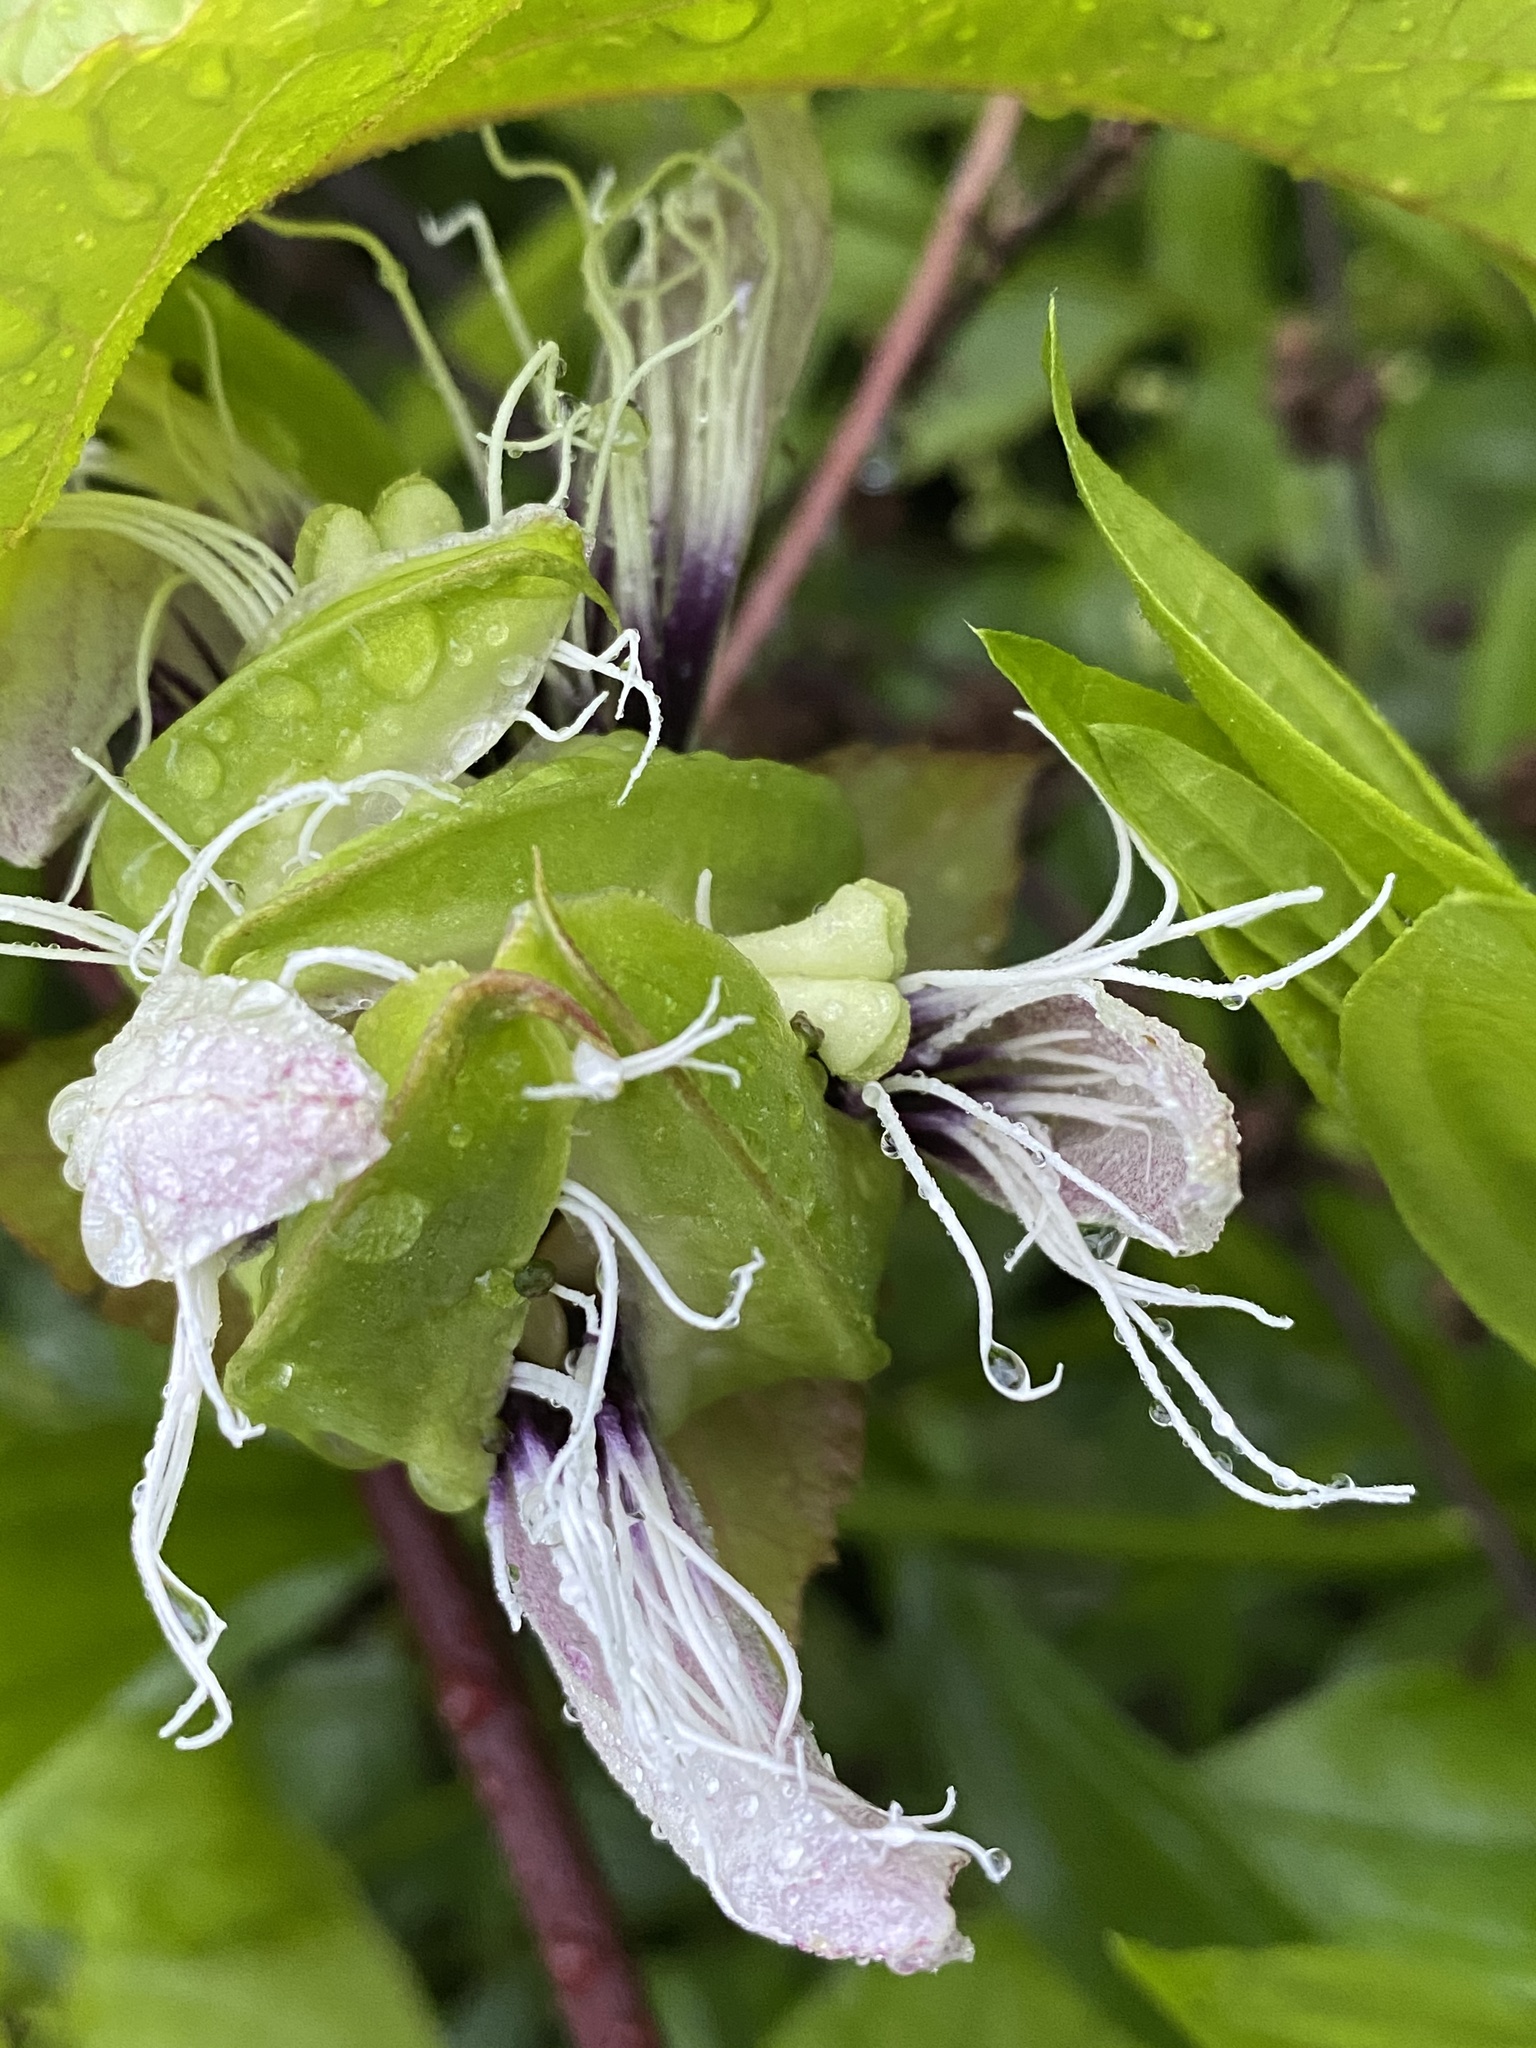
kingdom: Plantae
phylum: Tracheophyta
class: Magnoliopsida
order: Malpighiales
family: Passifloraceae
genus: Passiflora
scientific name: Passiflora edulis
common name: Purple granadilla
